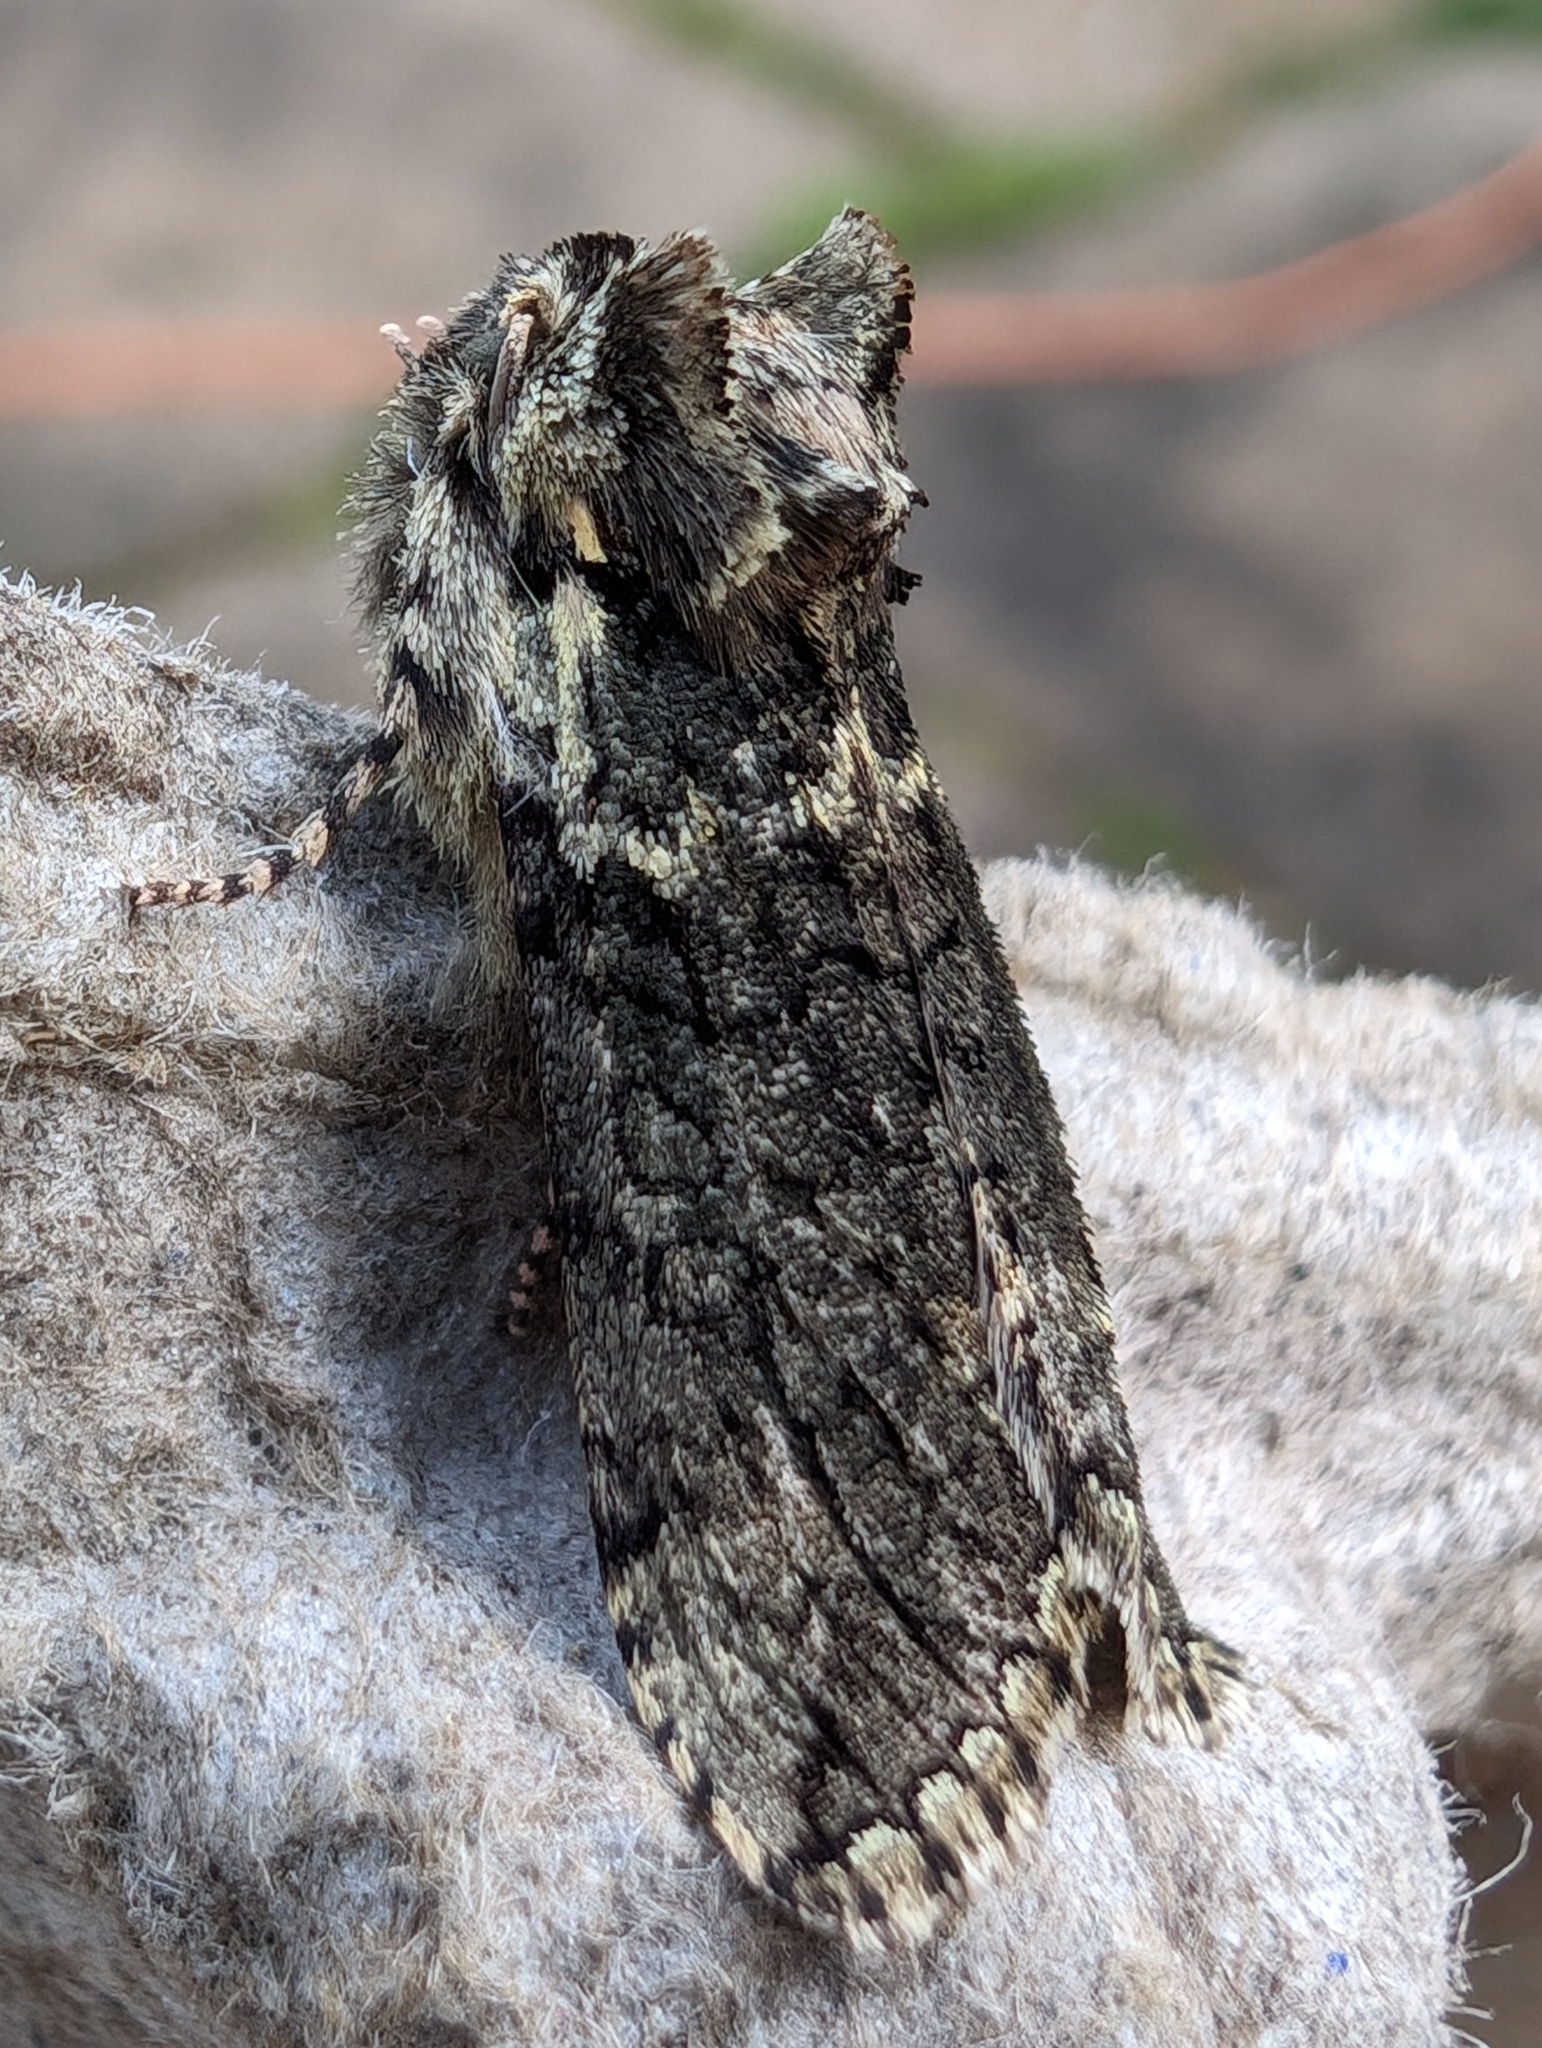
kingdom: Animalia
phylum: Arthropoda
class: Insecta
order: Lepidoptera
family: Drepanidae
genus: Polyploca
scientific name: Polyploca ridens
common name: Frosted green
